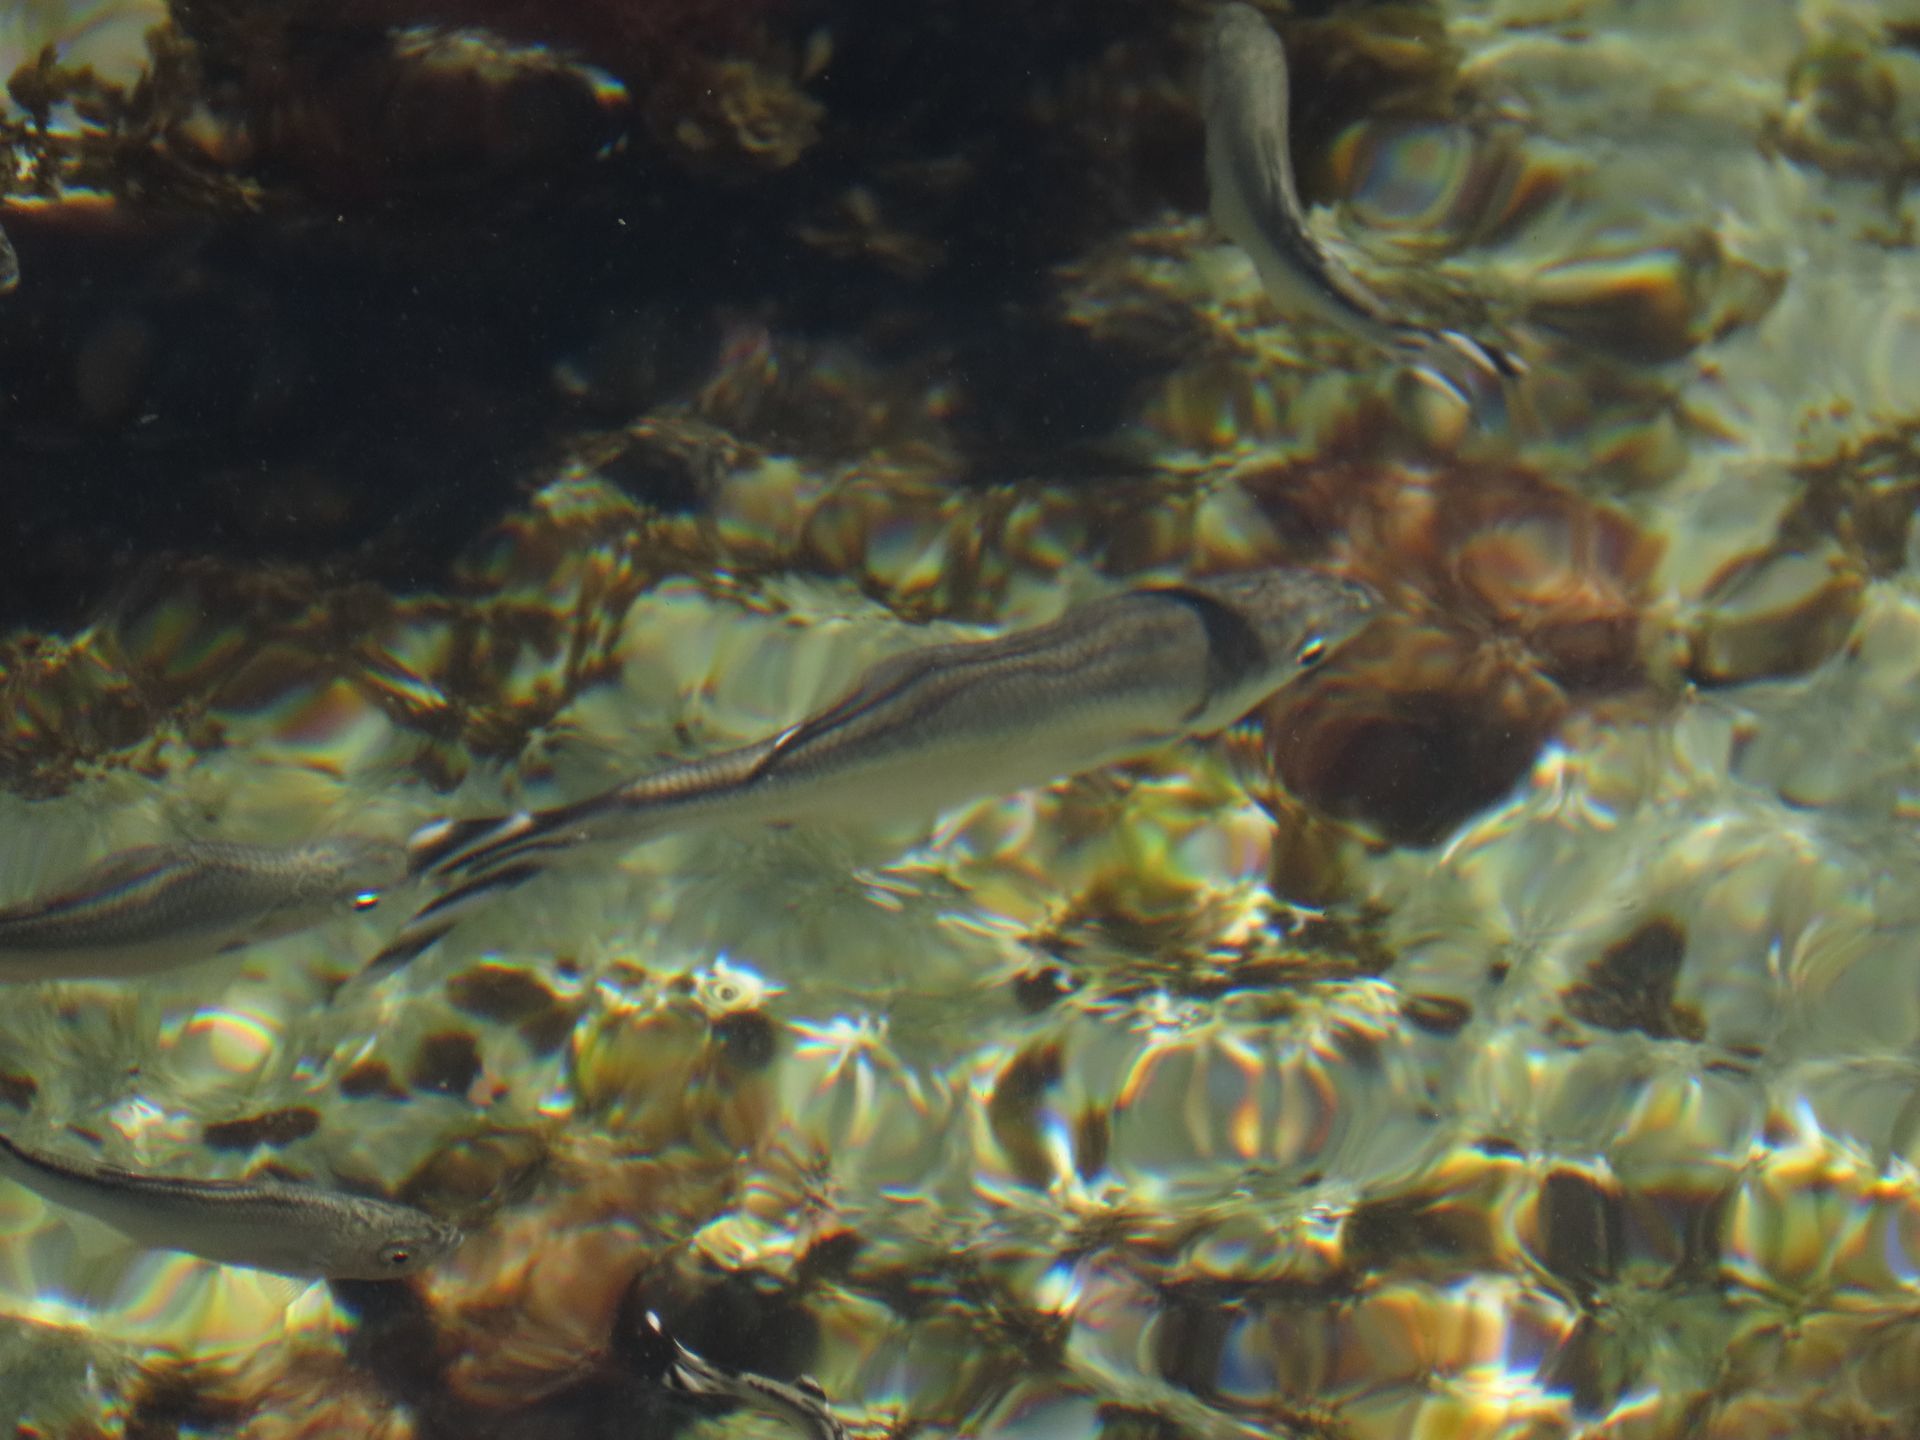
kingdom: Animalia
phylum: Chordata
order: Perciformes
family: Kuhliidae
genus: Kuhlia
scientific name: Kuhlia mugil
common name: Barred flagtail
